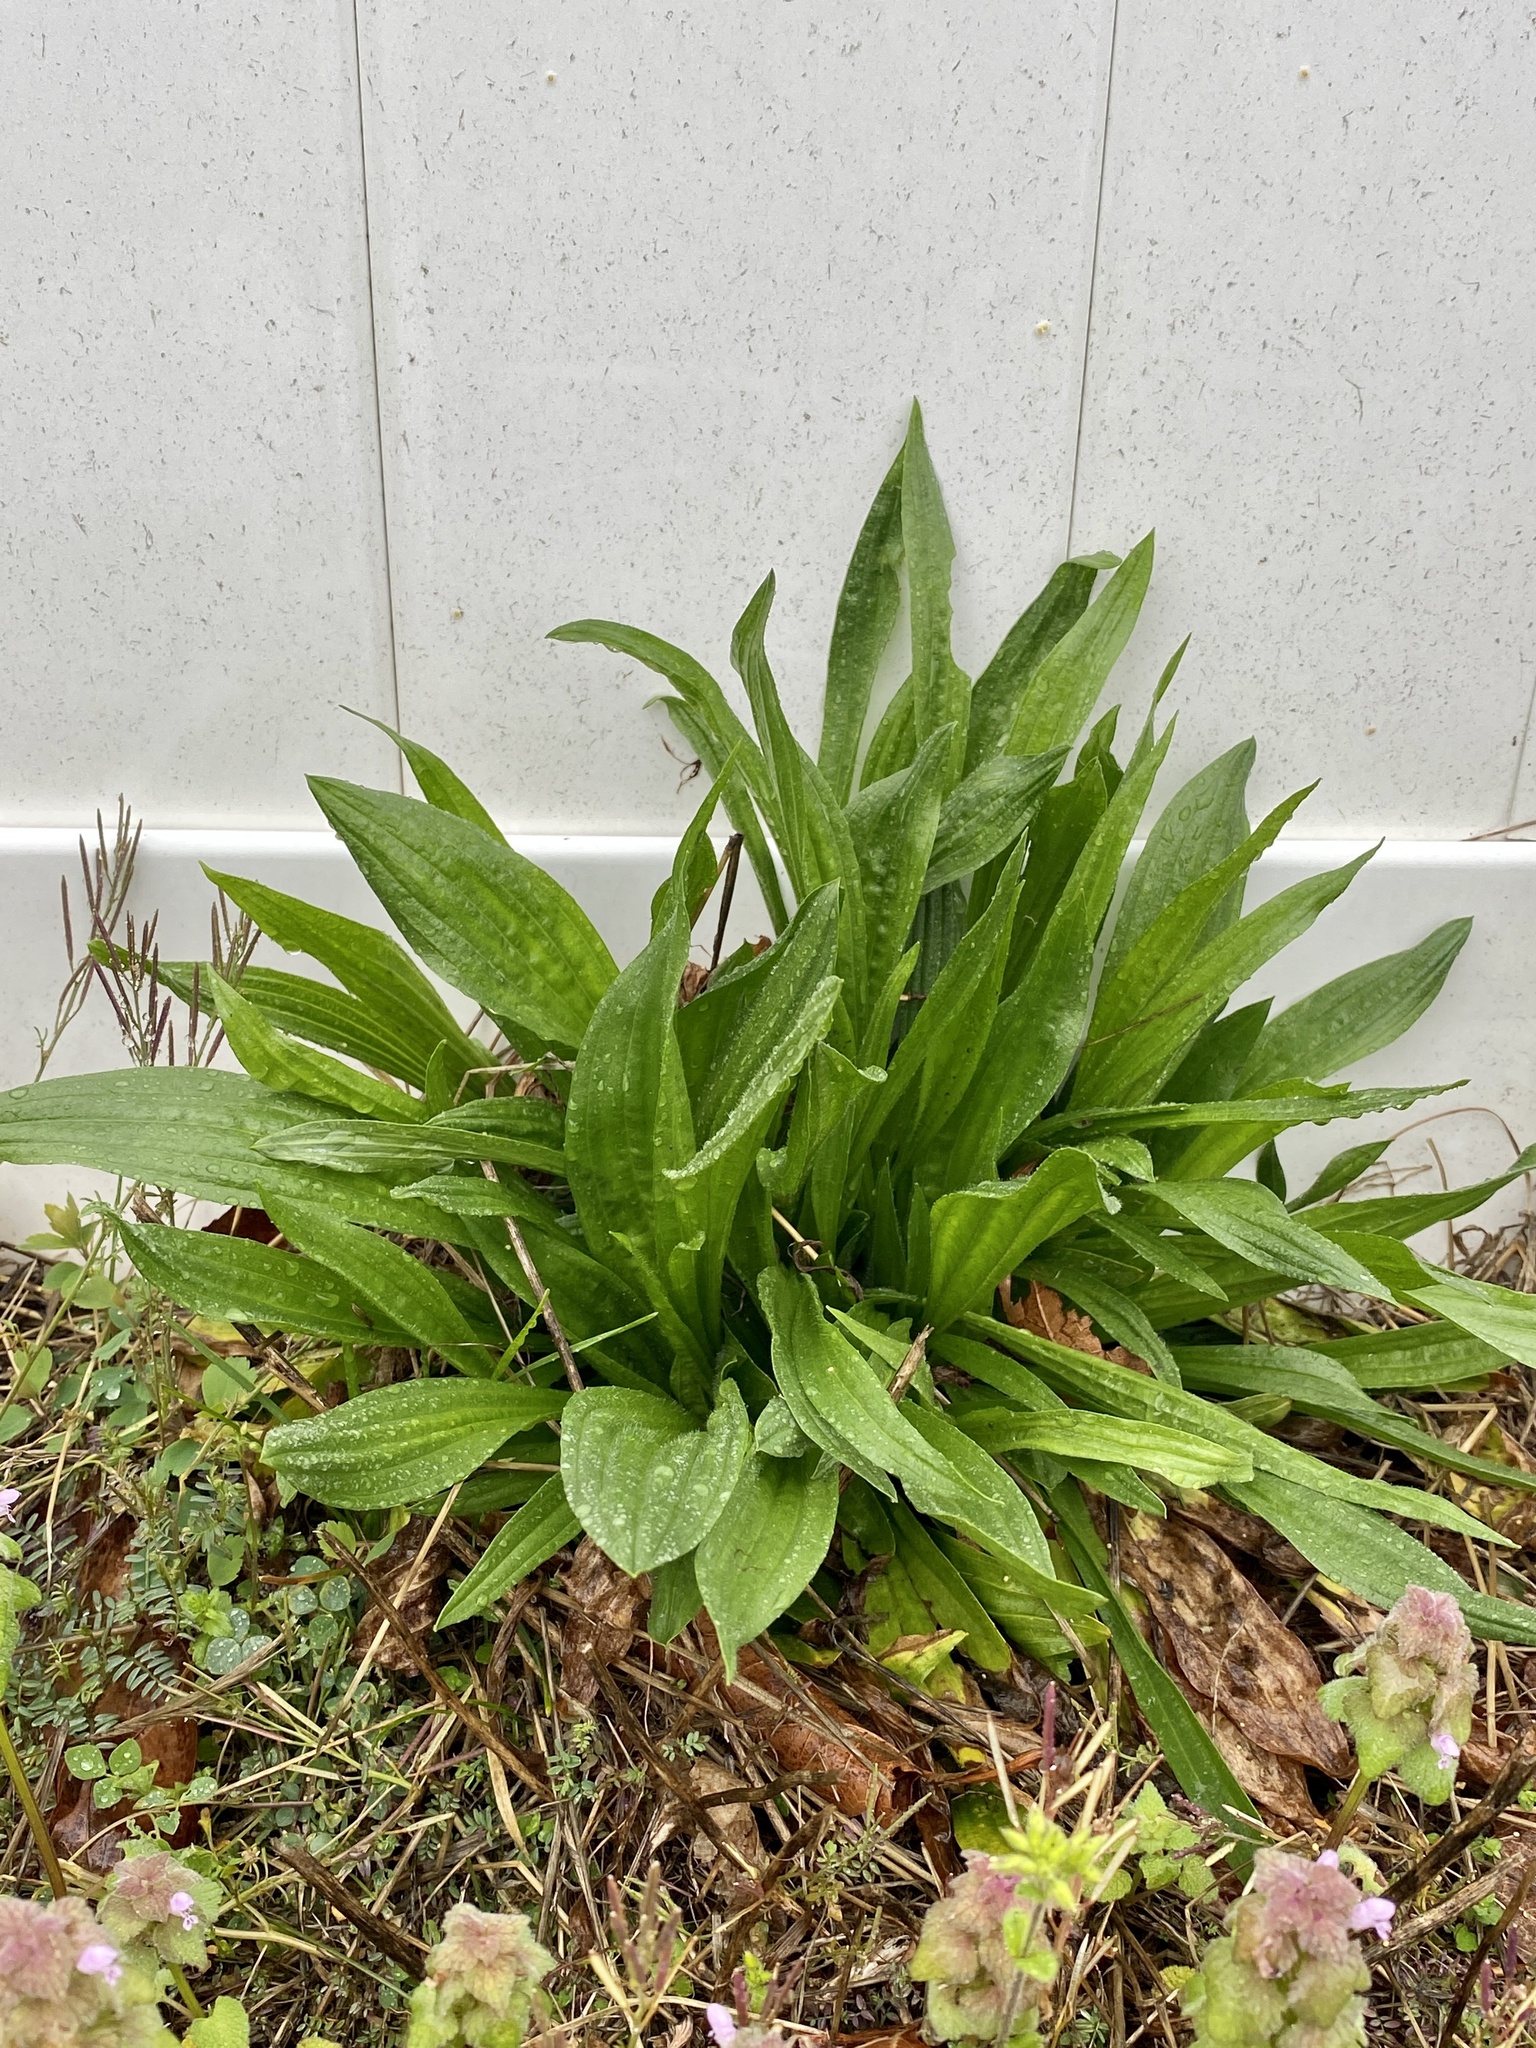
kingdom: Plantae
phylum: Tracheophyta
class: Magnoliopsida
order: Lamiales
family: Plantaginaceae
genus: Plantago
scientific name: Plantago lanceolata
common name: Ribwort plantain
